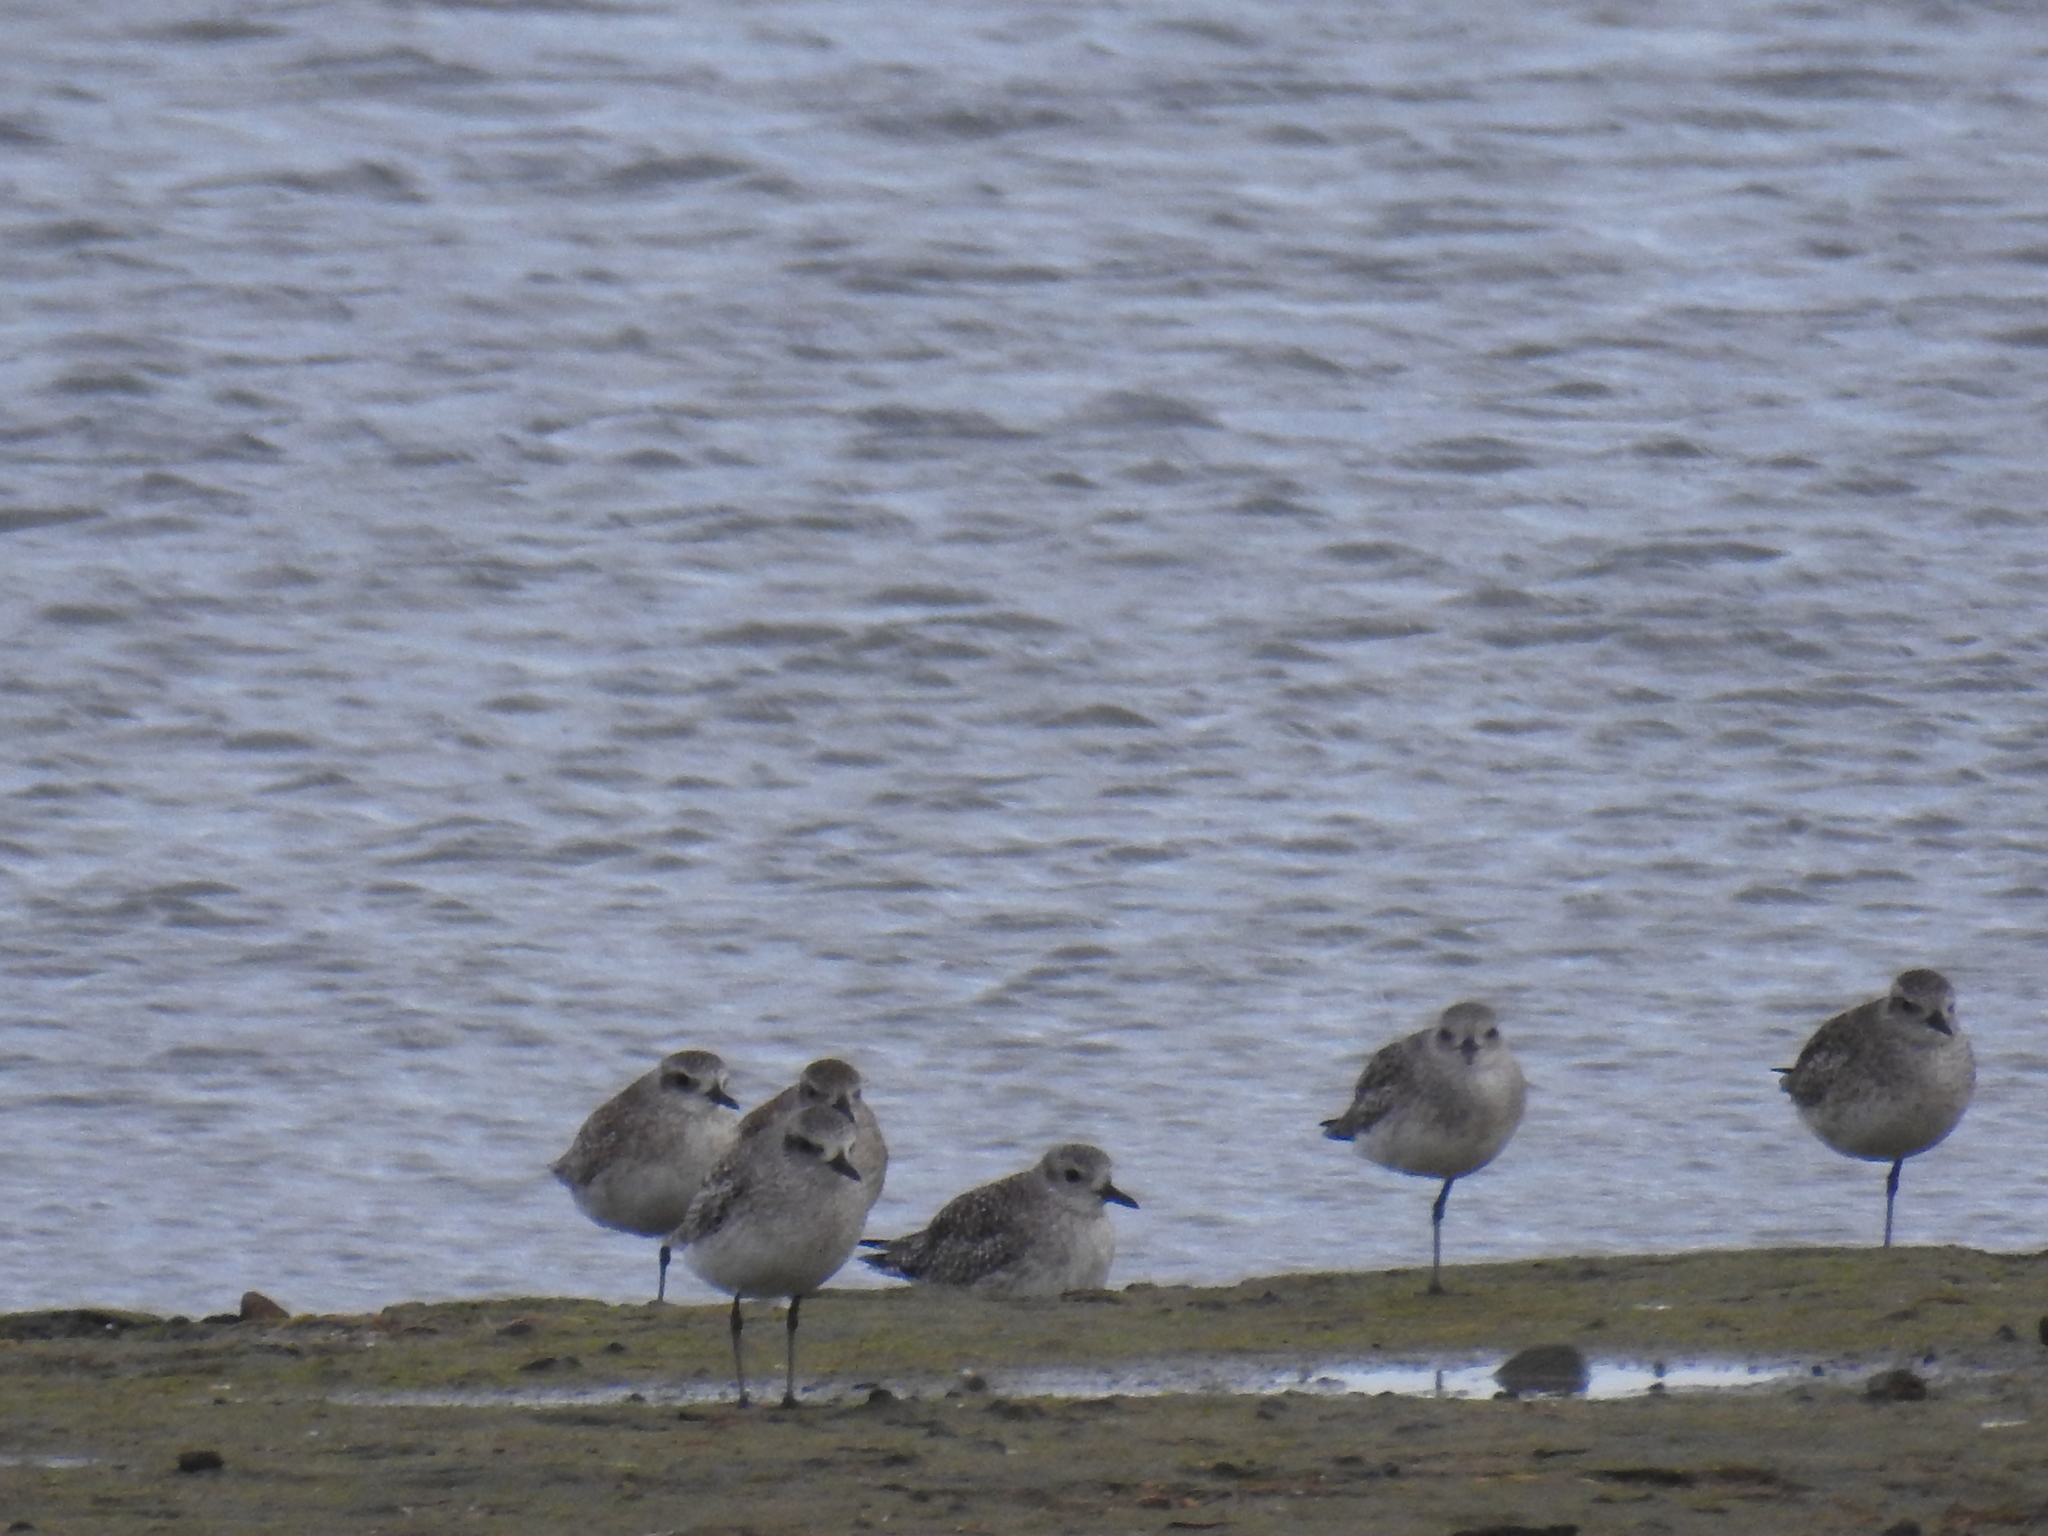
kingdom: Animalia
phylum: Chordata
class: Aves
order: Charadriiformes
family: Charadriidae
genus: Pluvialis
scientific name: Pluvialis squatarola
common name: Grey plover
